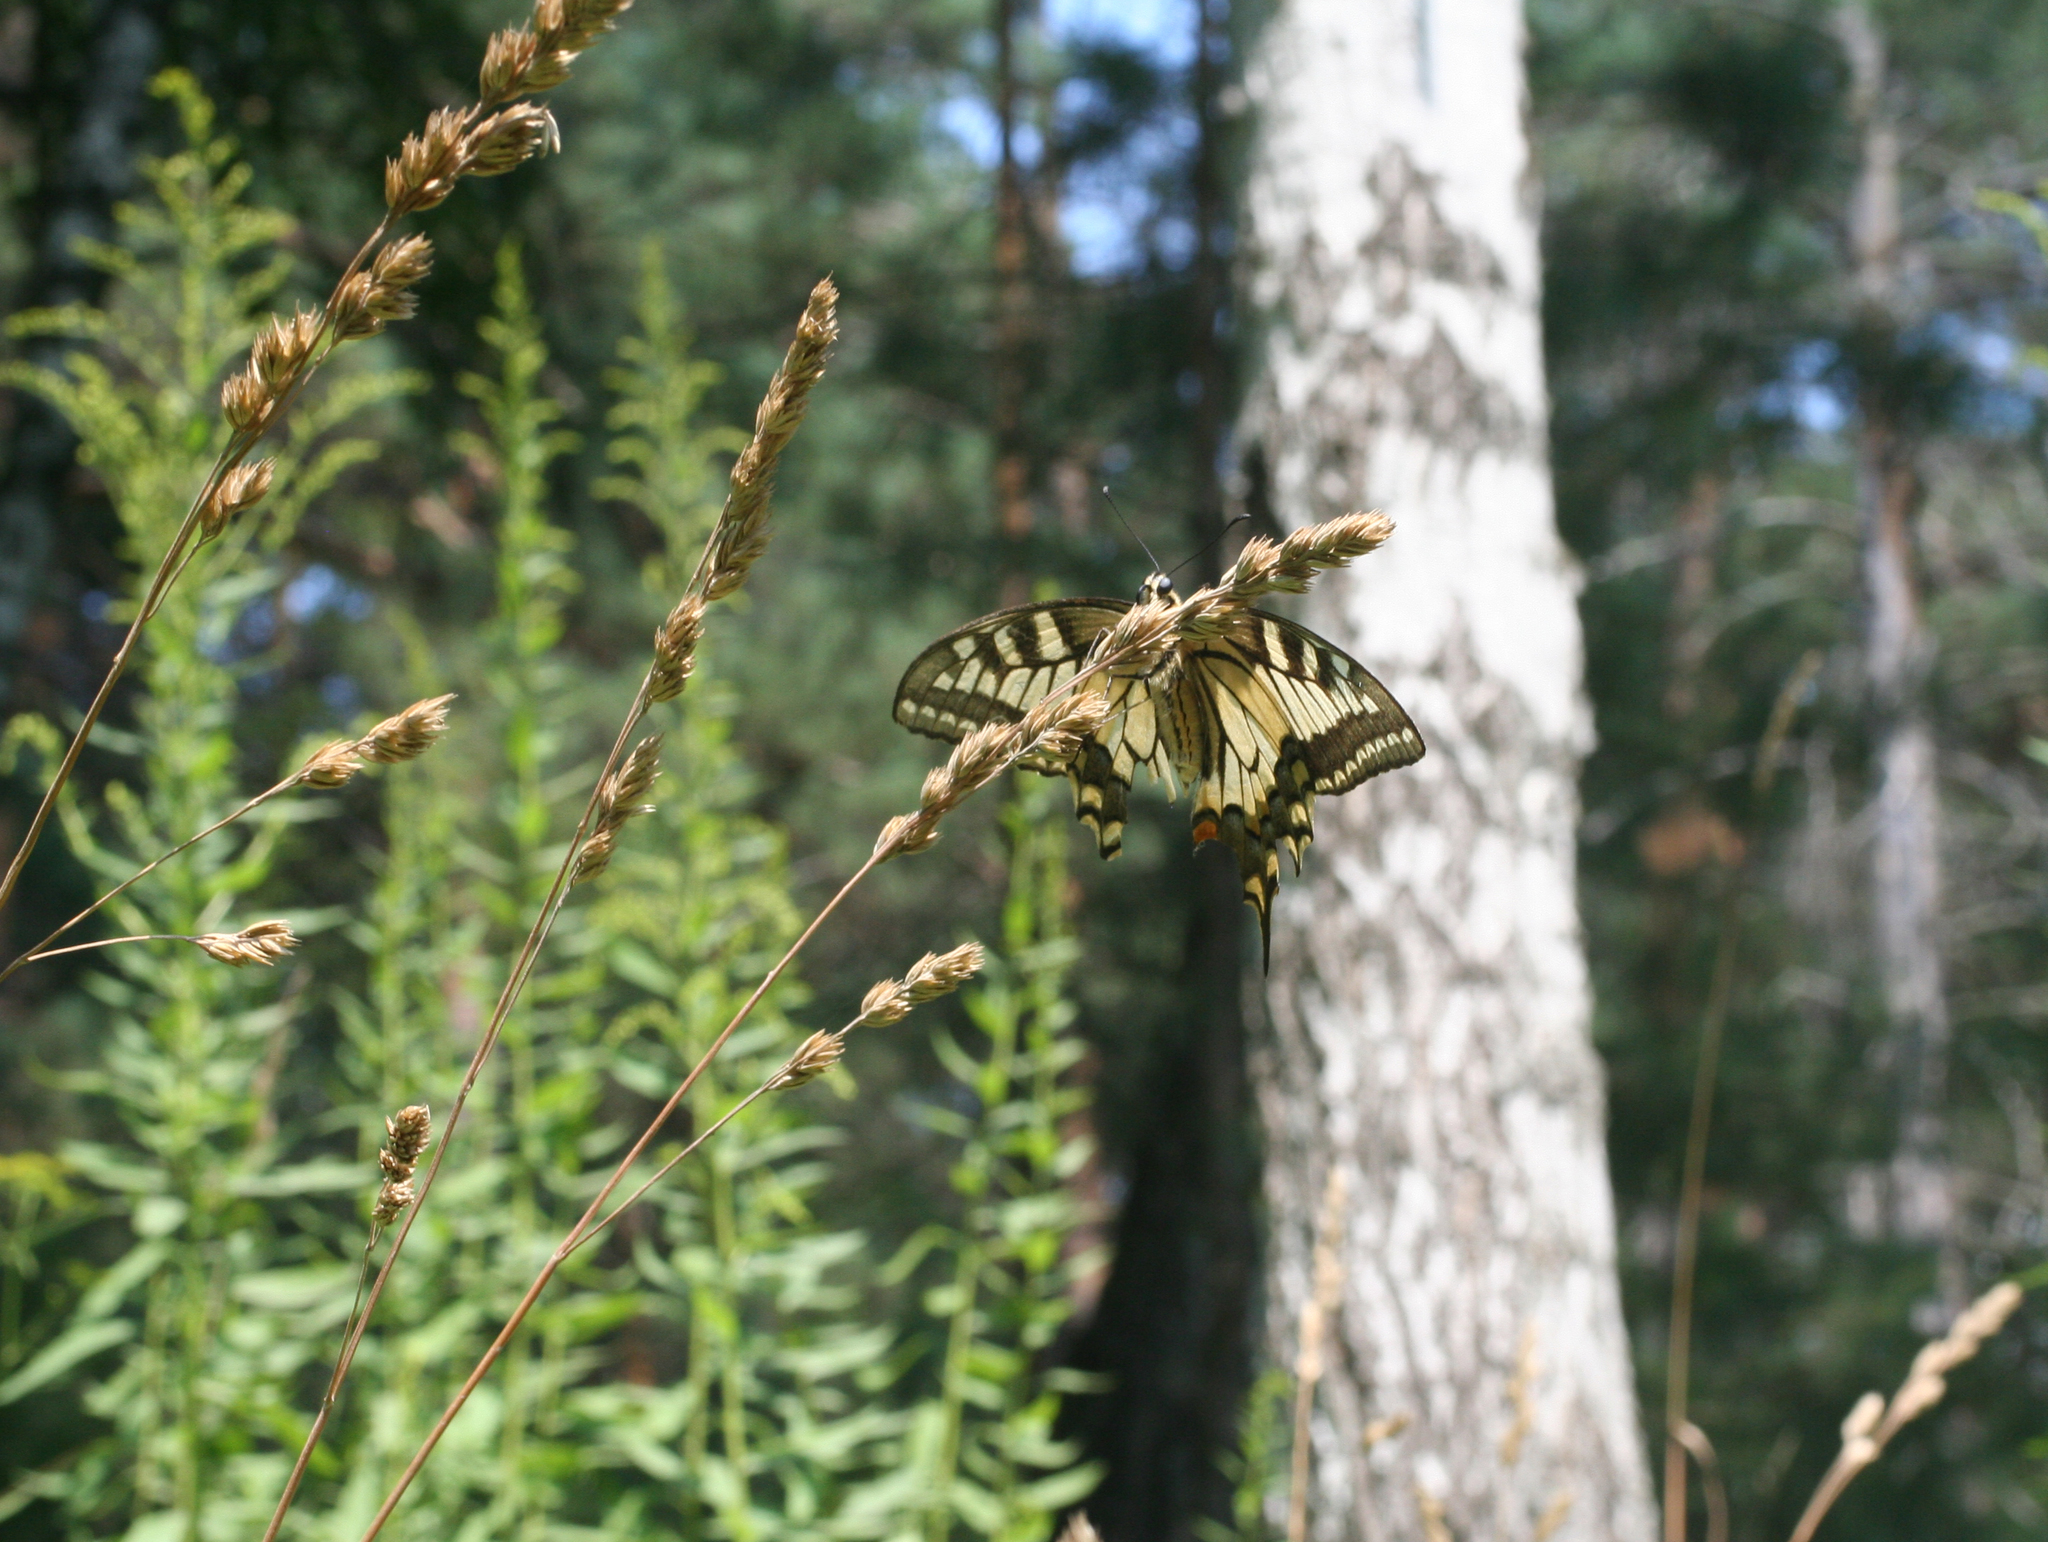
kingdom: Animalia
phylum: Arthropoda
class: Insecta
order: Lepidoptera
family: Papilionidae
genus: Papilio
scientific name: Papilio machaon
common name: Swallowtail
